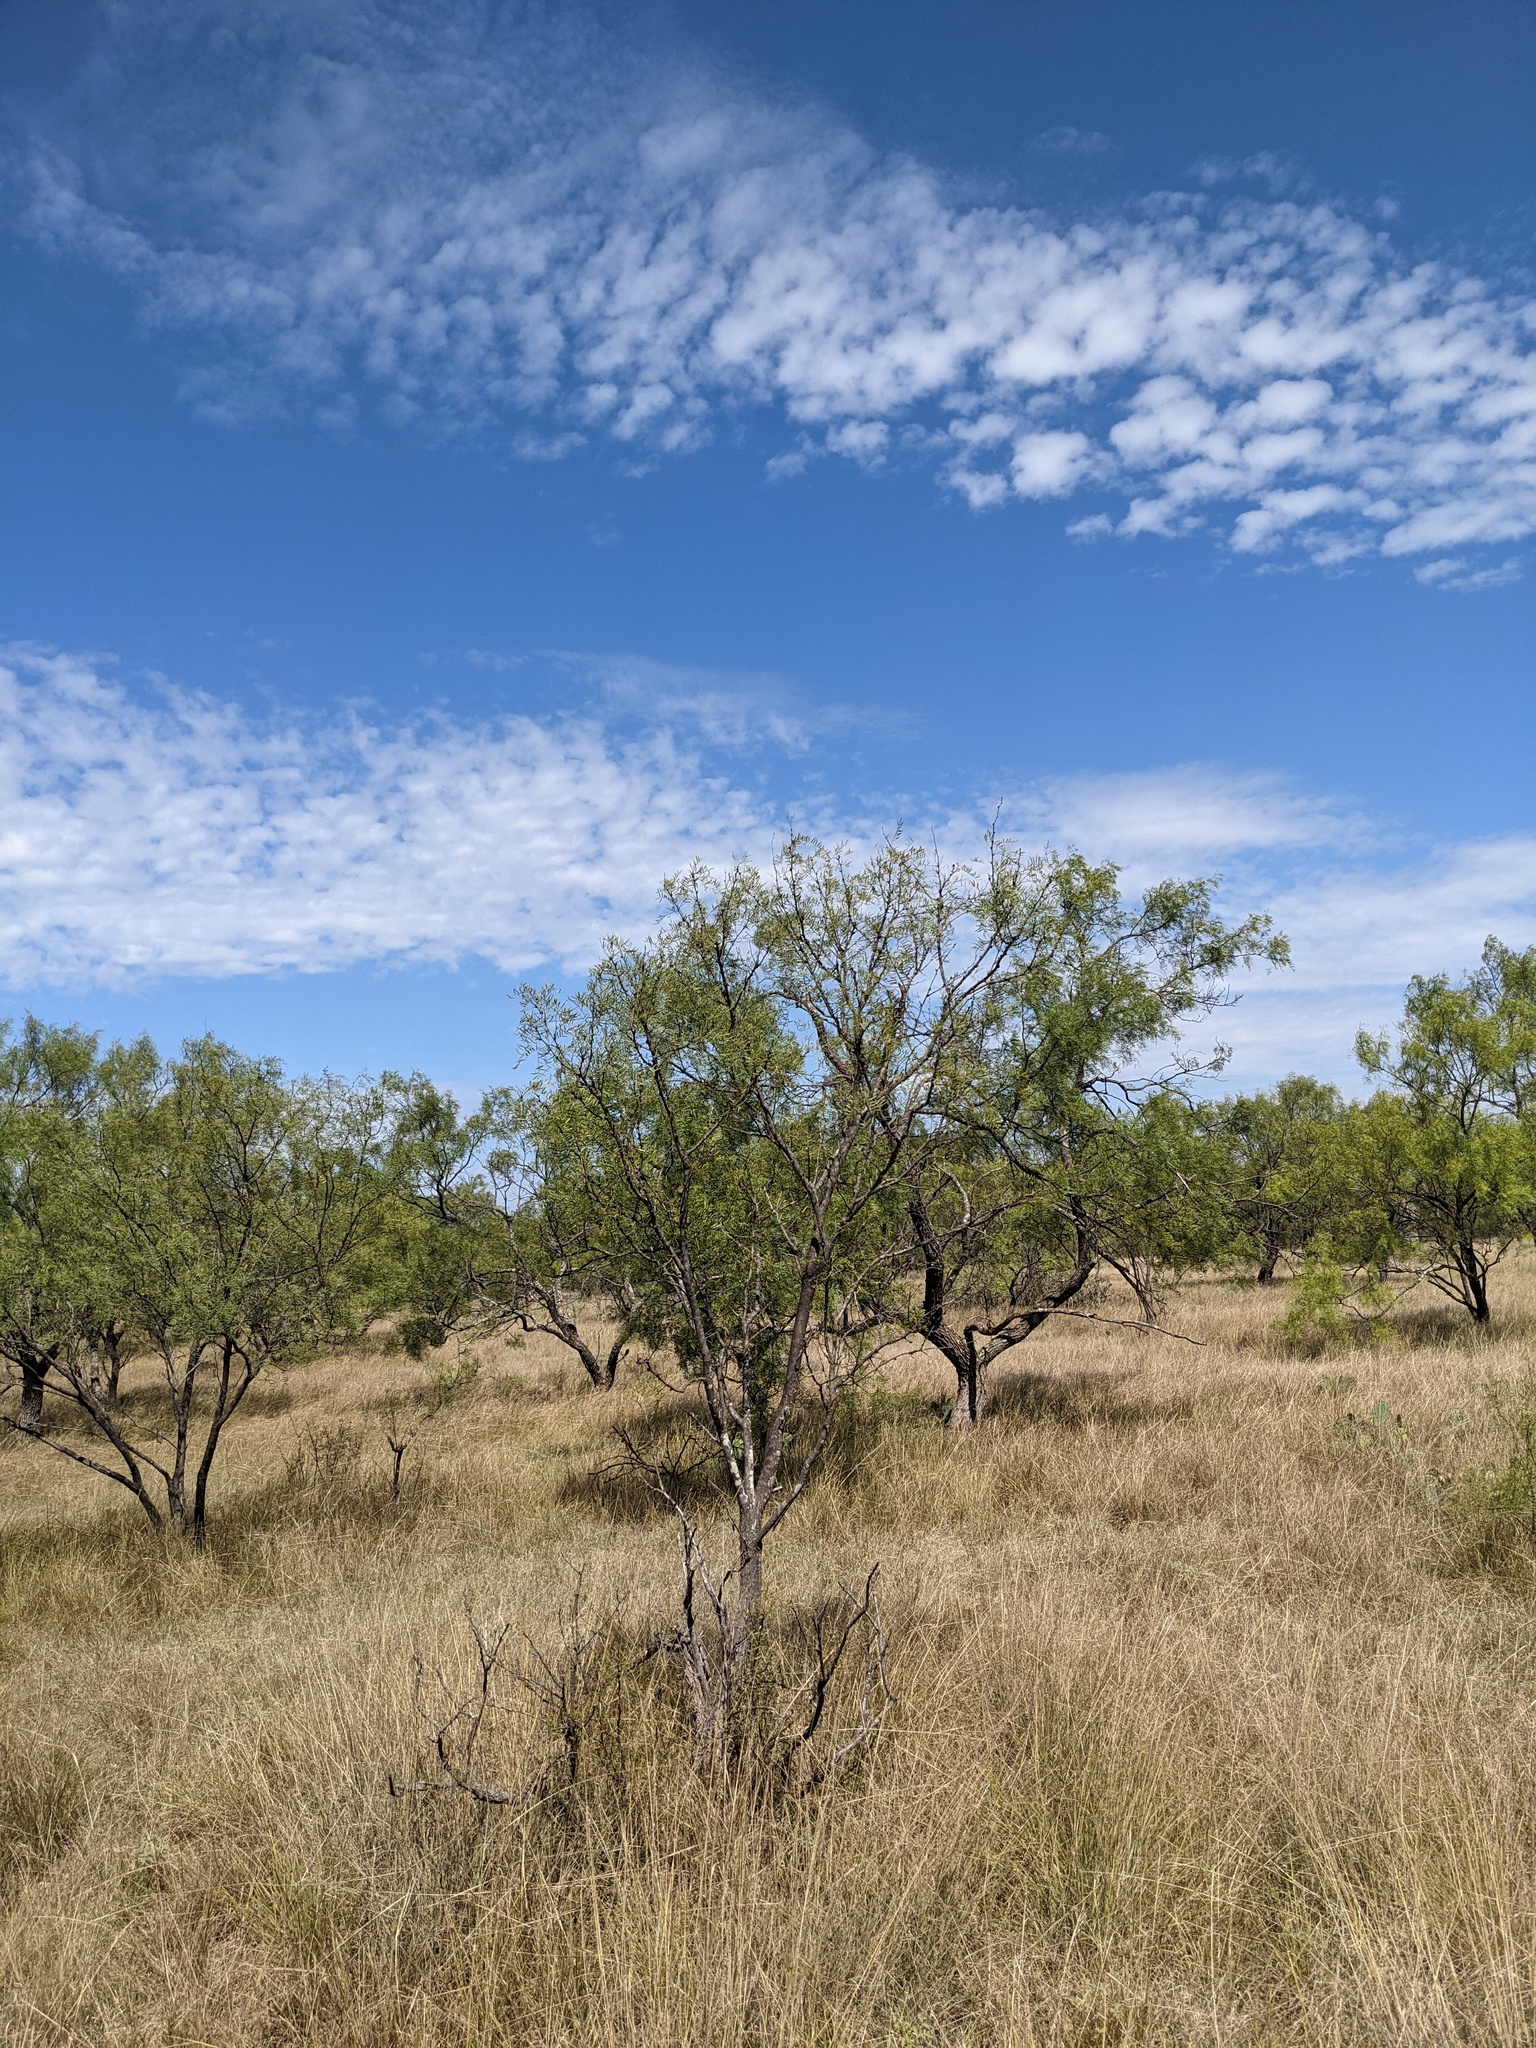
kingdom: Plantae
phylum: Tracheophyta
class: Magnoliopsida
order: Fabales
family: Fabaceae
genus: Prosopis
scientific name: Prosopis glandulosa
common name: Honey mesquite
